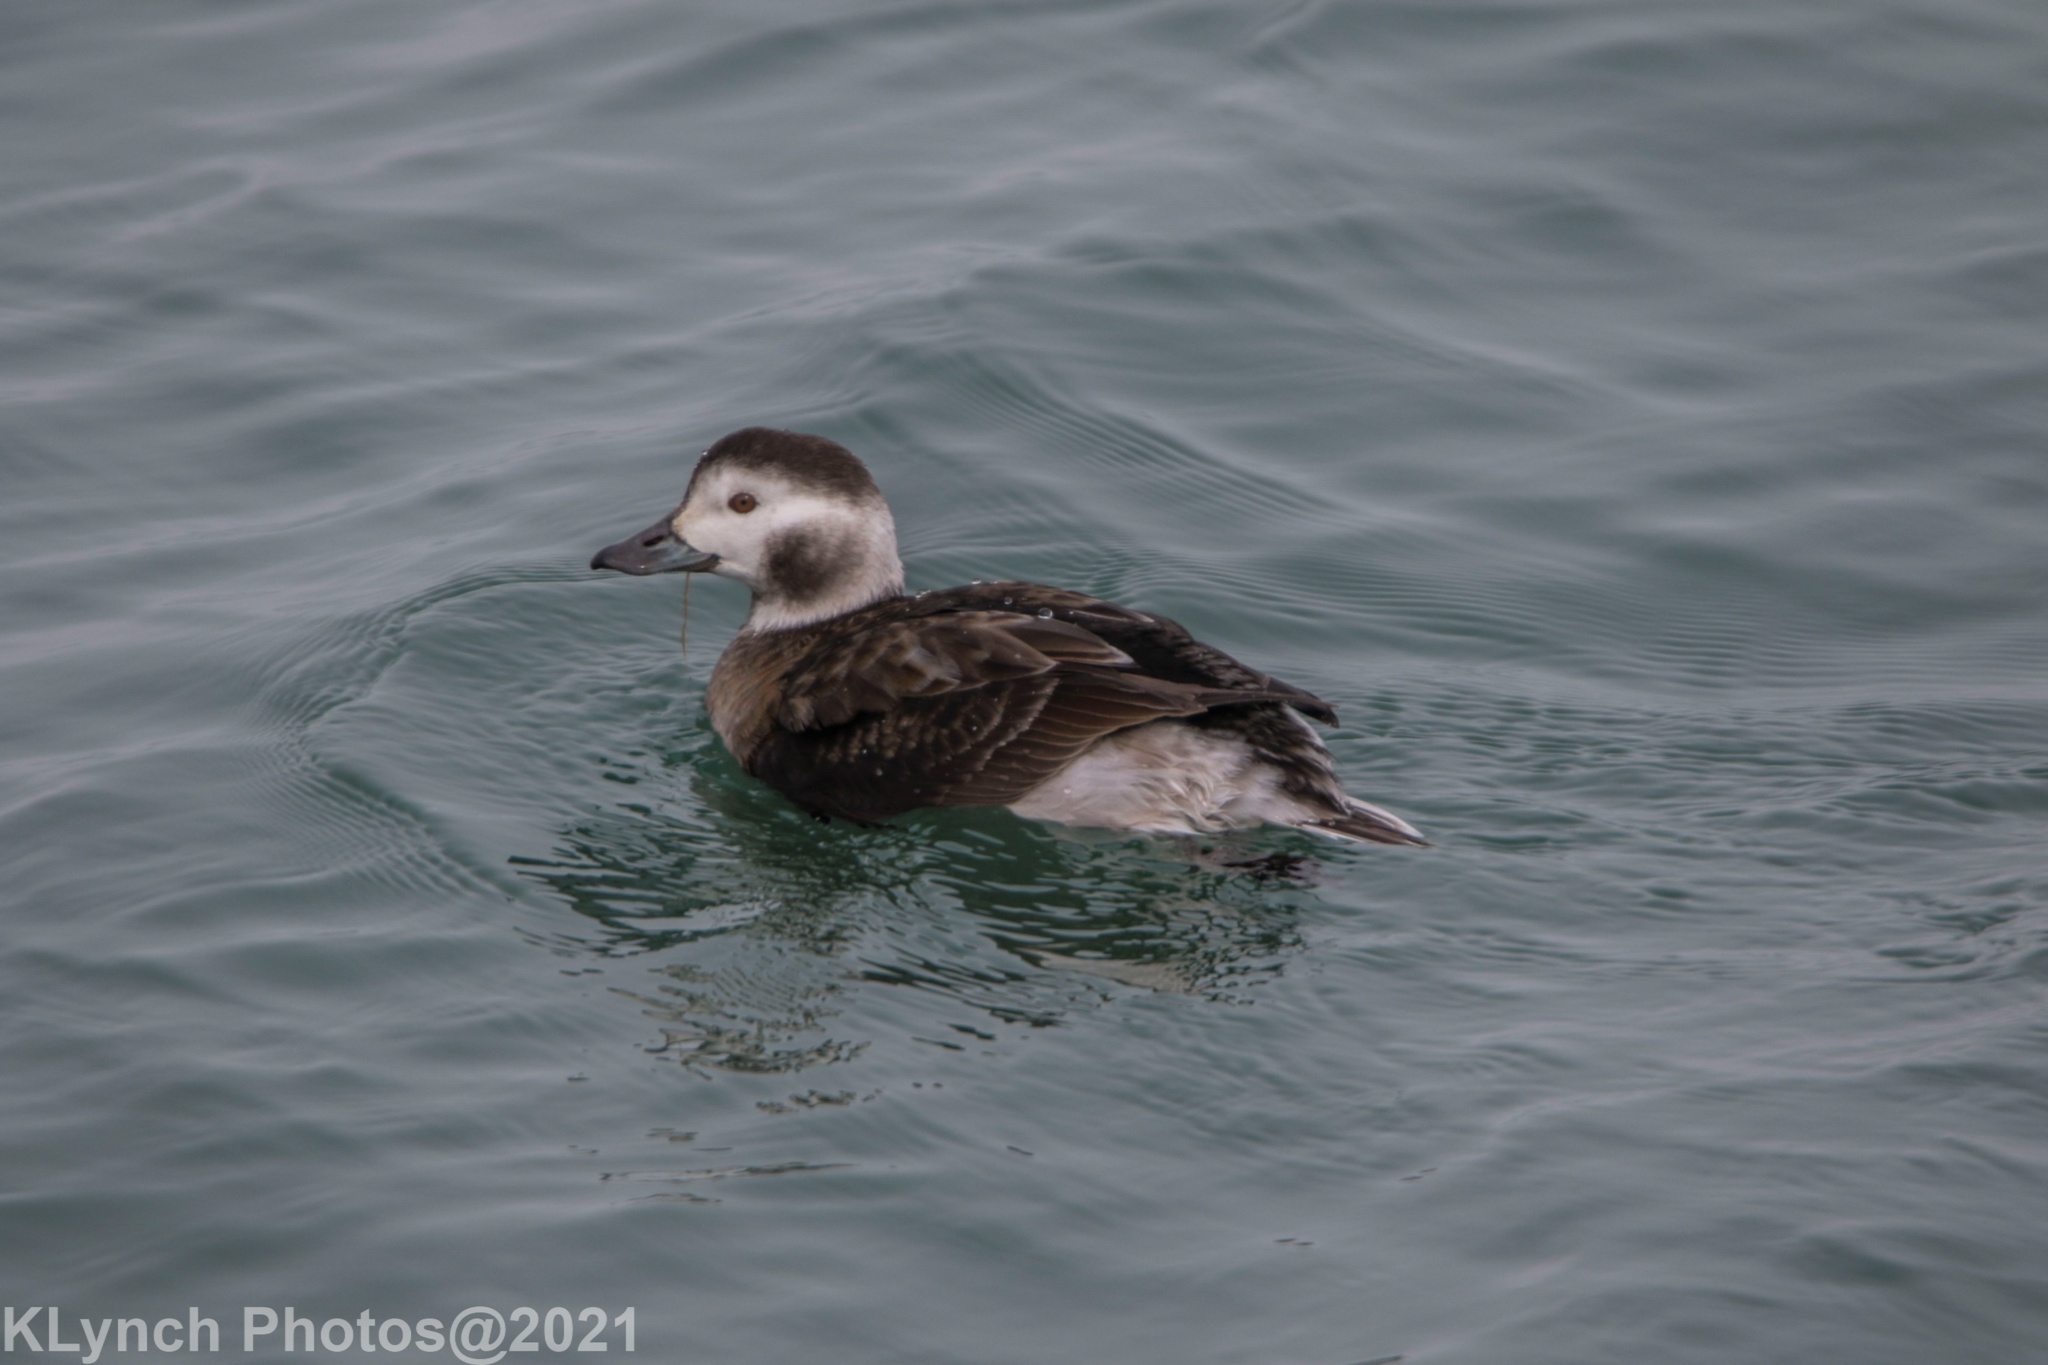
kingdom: Animalia
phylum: Chordata
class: Aves
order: Anseriformes
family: Anatidae
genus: Clangula
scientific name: Clangula hyemalis
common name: Long-tailed duck
